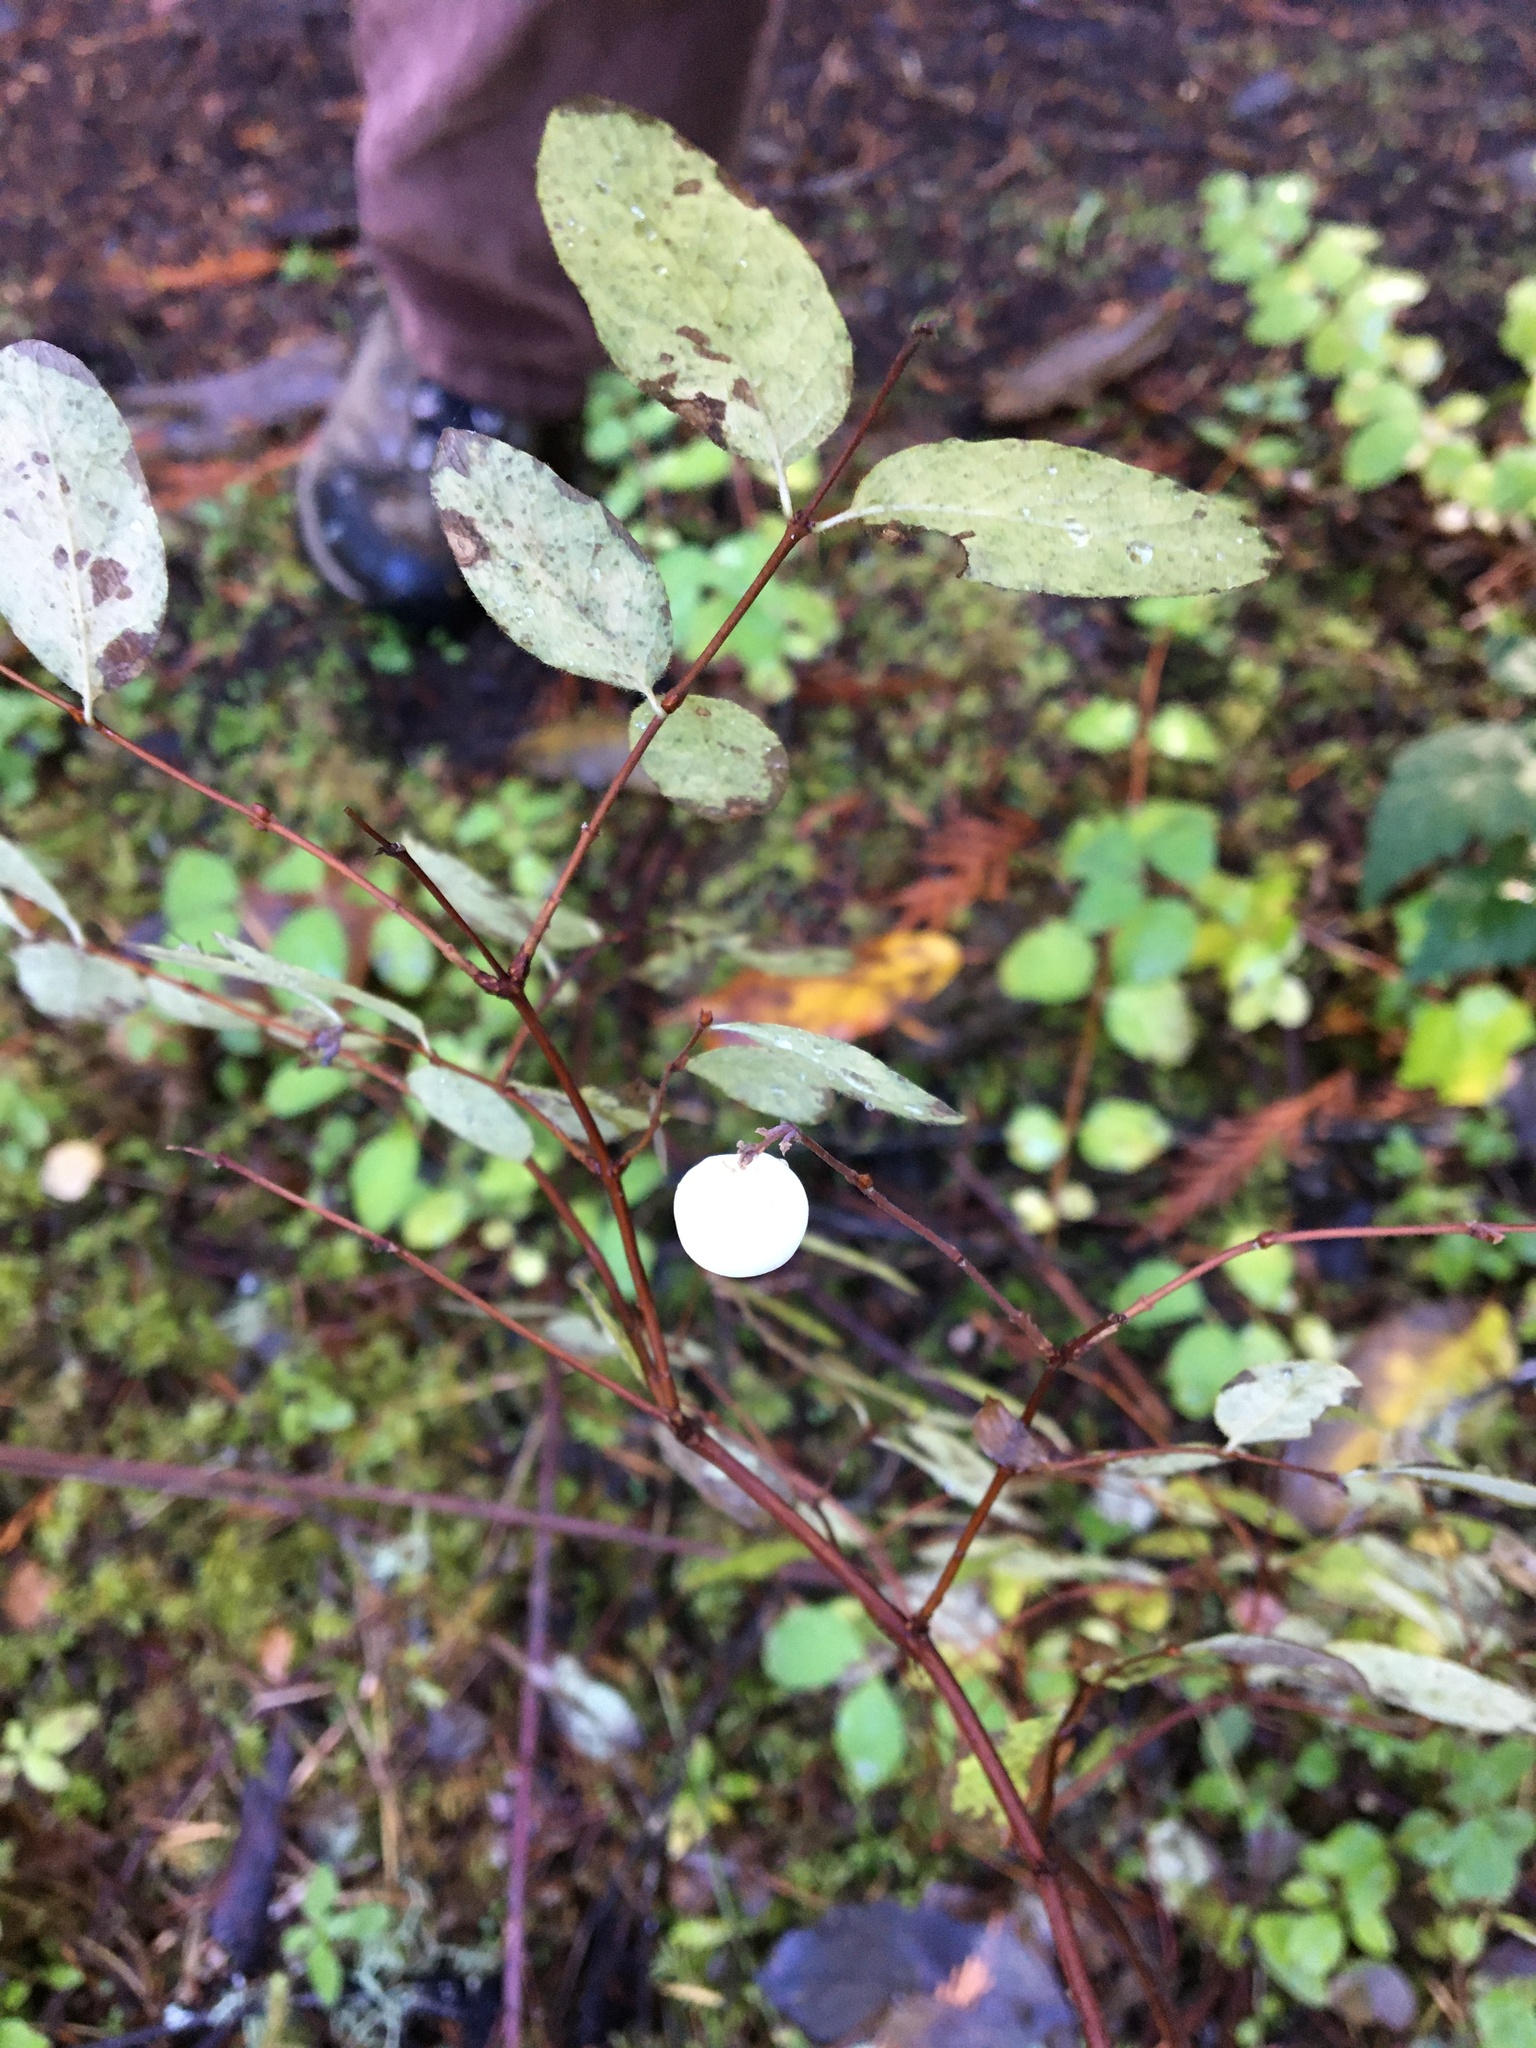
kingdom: Plantae
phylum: Tracheophyta
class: Magnoliopsida
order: Dipsacales
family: Caprifoliaceae
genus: Symphoricarpos
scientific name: Symphoricarpos albus
